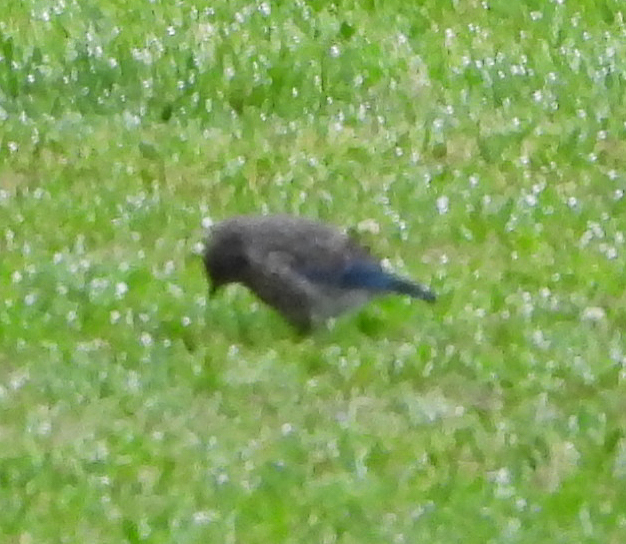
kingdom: Animalia
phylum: Chordata
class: Aves
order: Passeriformes
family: Turdidae
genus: Sialia
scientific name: Sialia sialis
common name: Eastern bluebird
